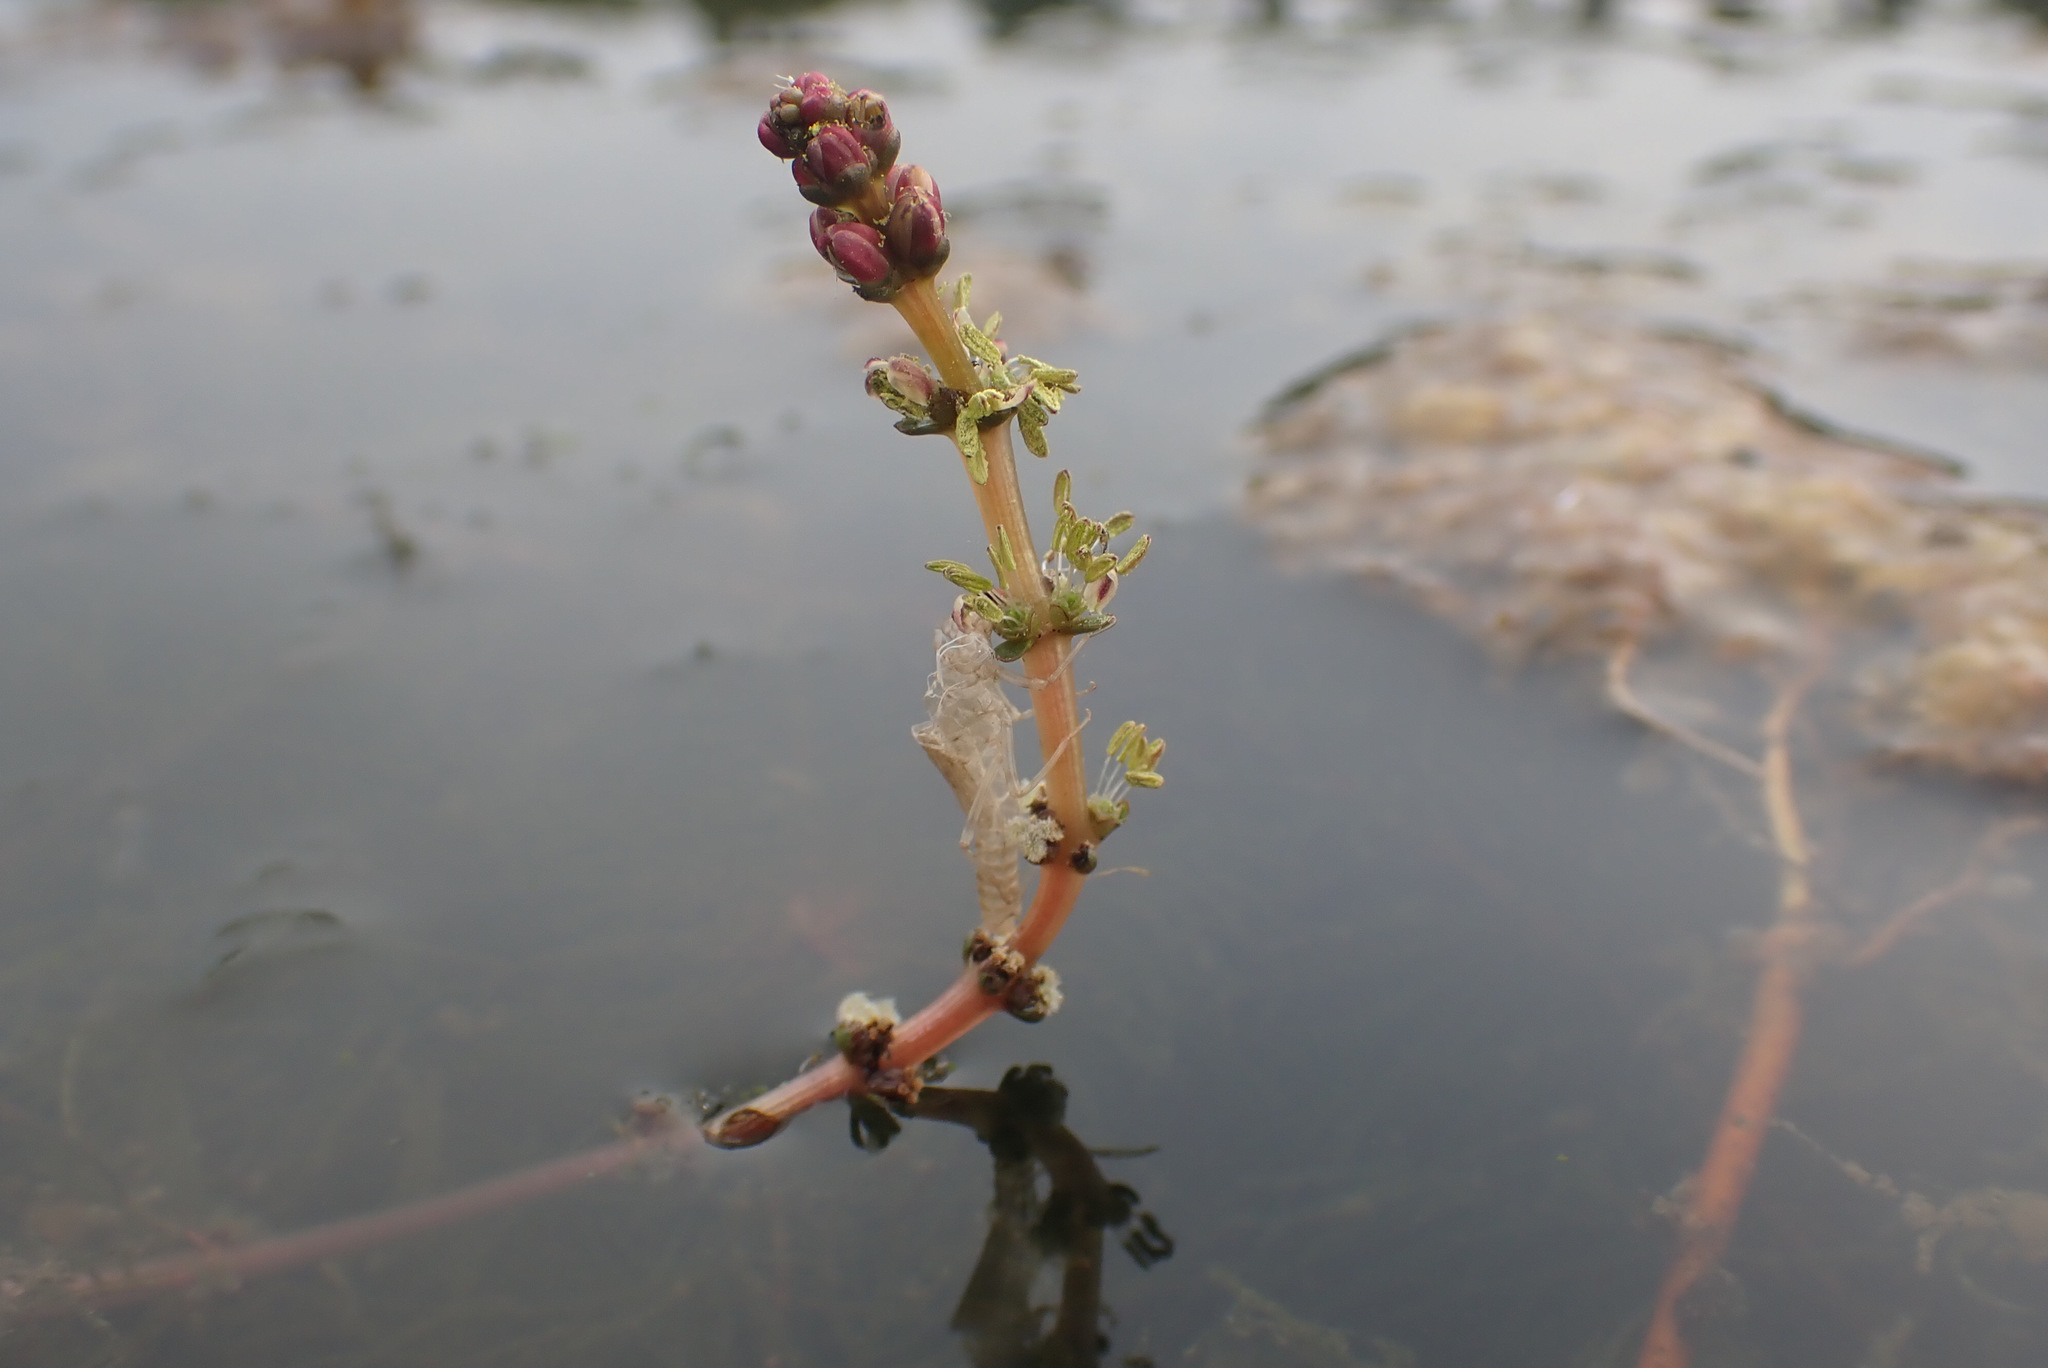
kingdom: Plantae
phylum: Tracheophyta
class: Magnoliopsida
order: Saxifragales
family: Haloragaceae
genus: Myriophyllum
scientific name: Myriophyllum spicatum
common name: Spiked water-milfoil
